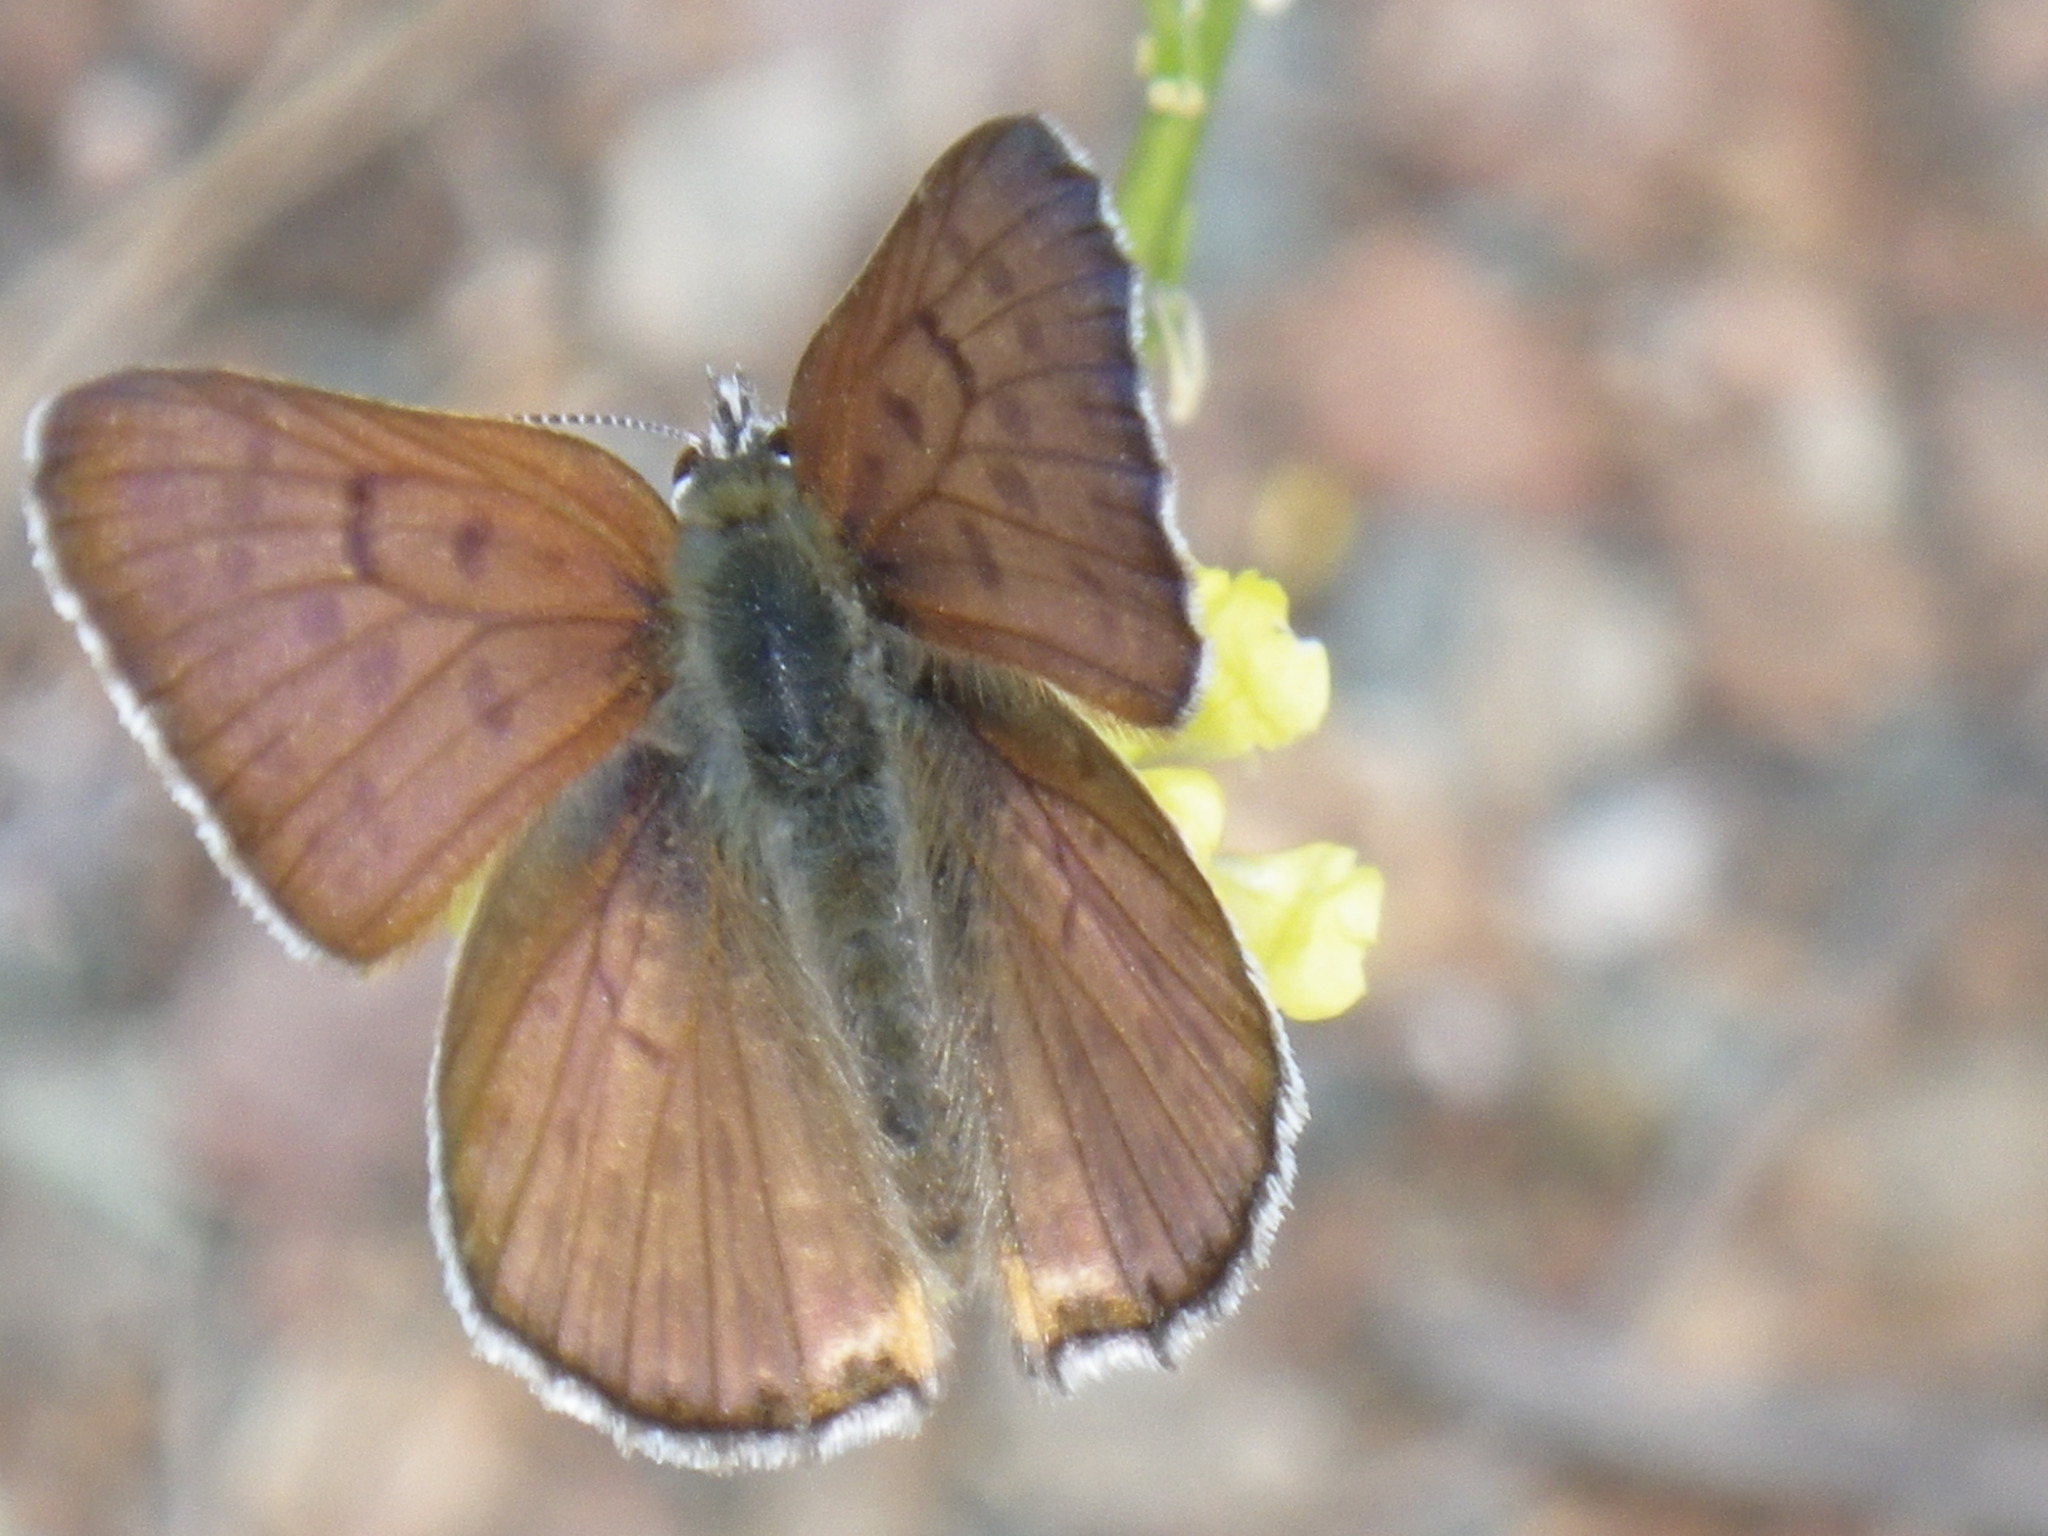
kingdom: Animalia
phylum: Arthropoda
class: Insecta
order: Lepidoptera
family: Lycaenidae
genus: Tharsalea
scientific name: Tharsalea gorgon
